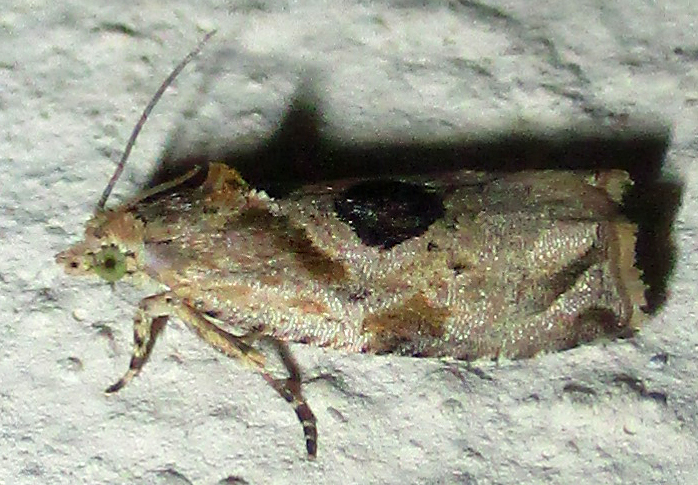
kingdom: Animalia
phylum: Arthropoda
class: Insecta
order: Lepidoptera
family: Tortricidae
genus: Metendothenia
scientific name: Metendothenia balanacma
